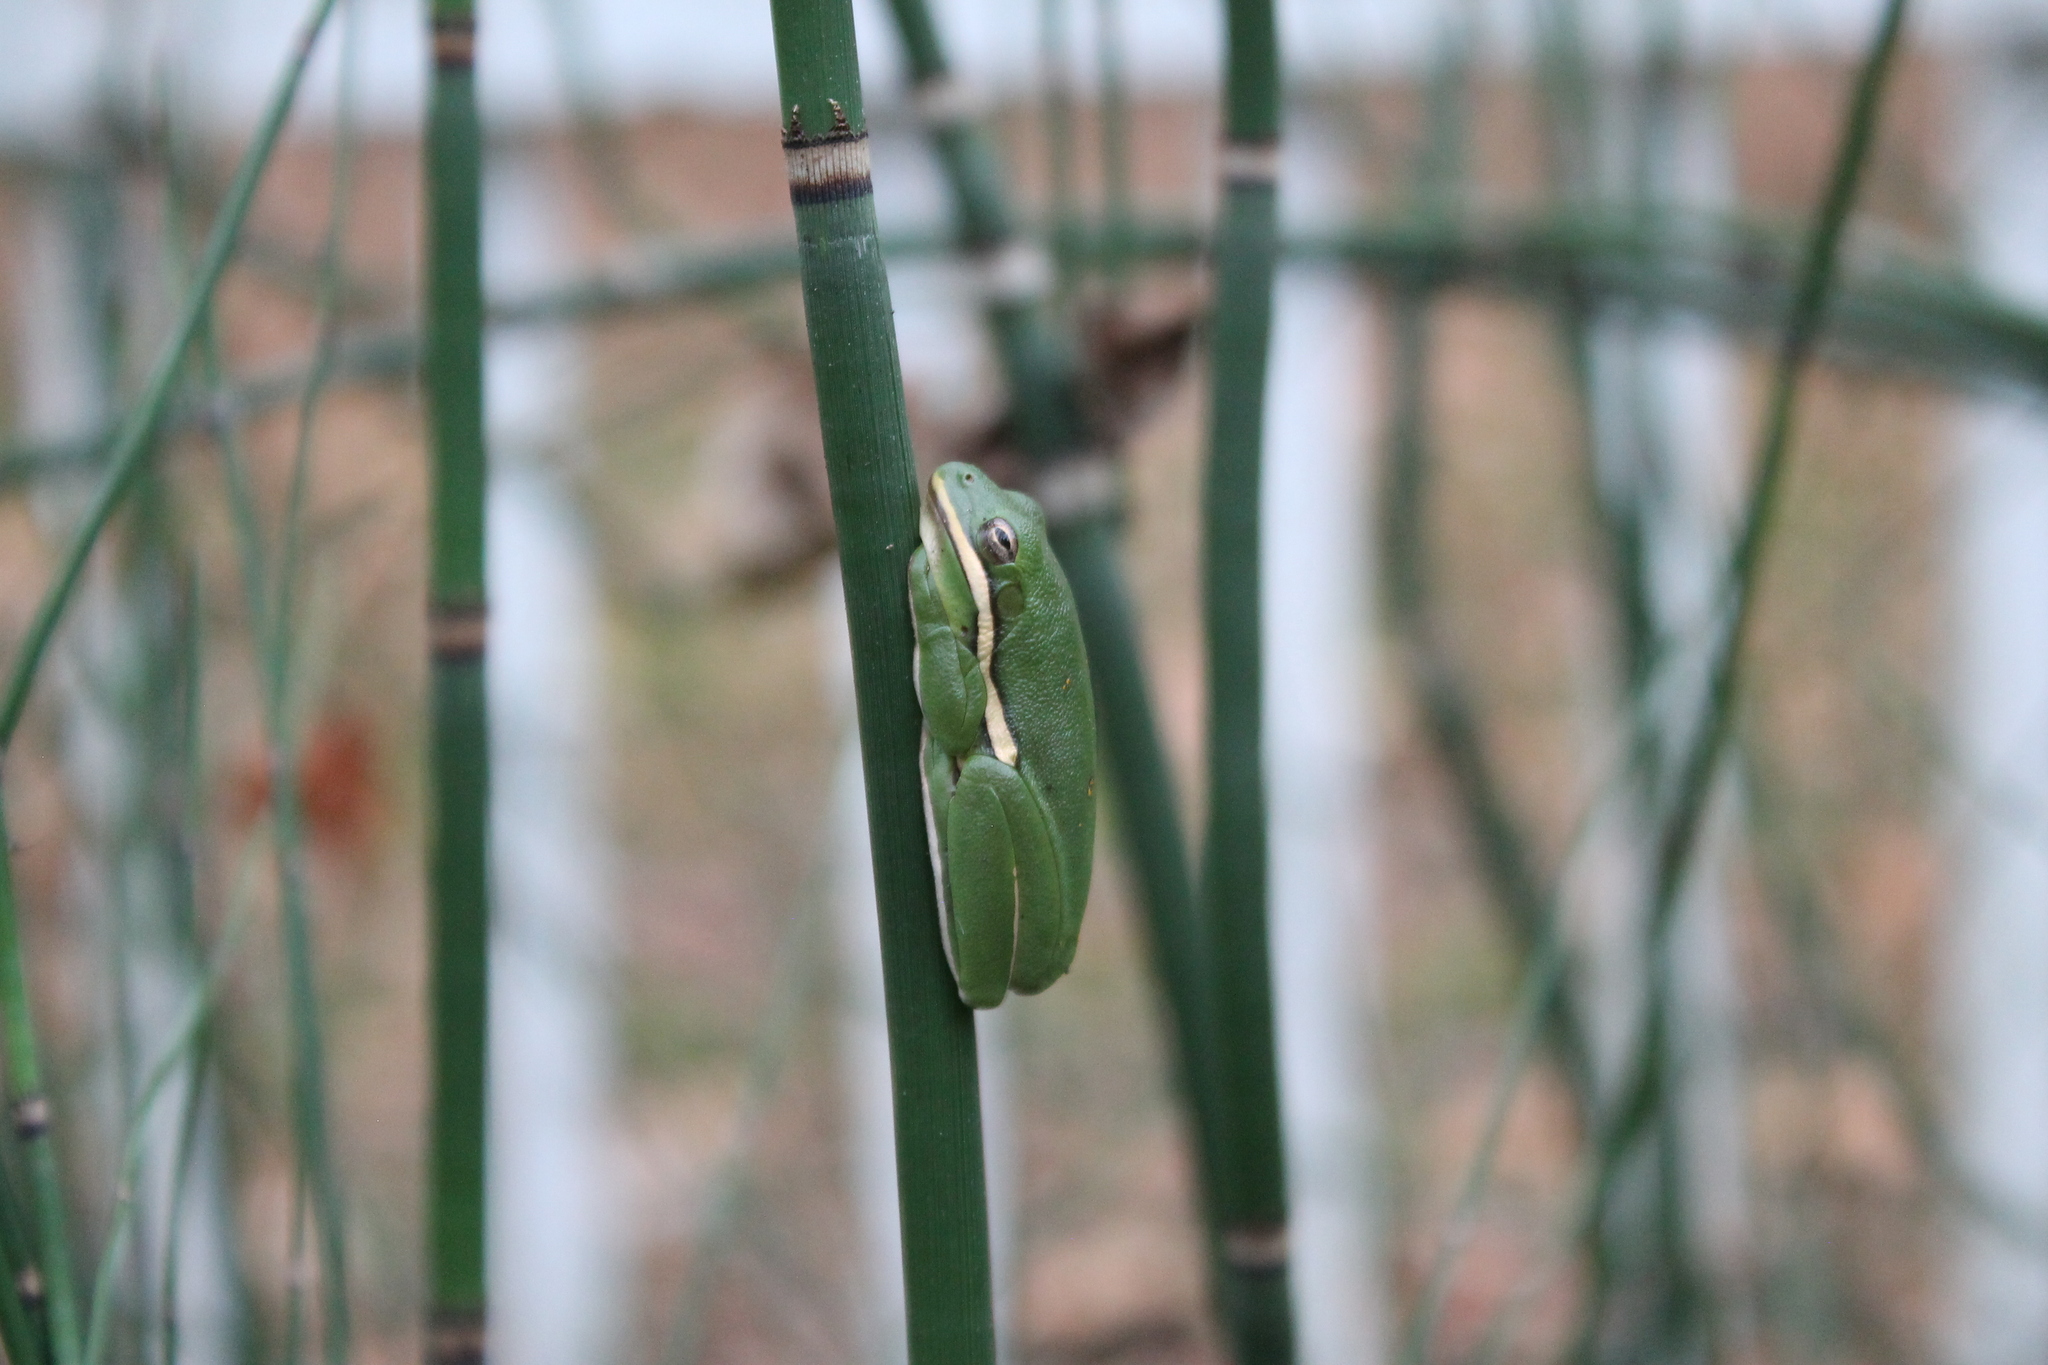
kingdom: Animalia
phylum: Chordata
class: Amphibia
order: Anura
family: Hylidae
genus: Dryophytes
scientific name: Dryophytes cinereus
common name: Green treefrog
